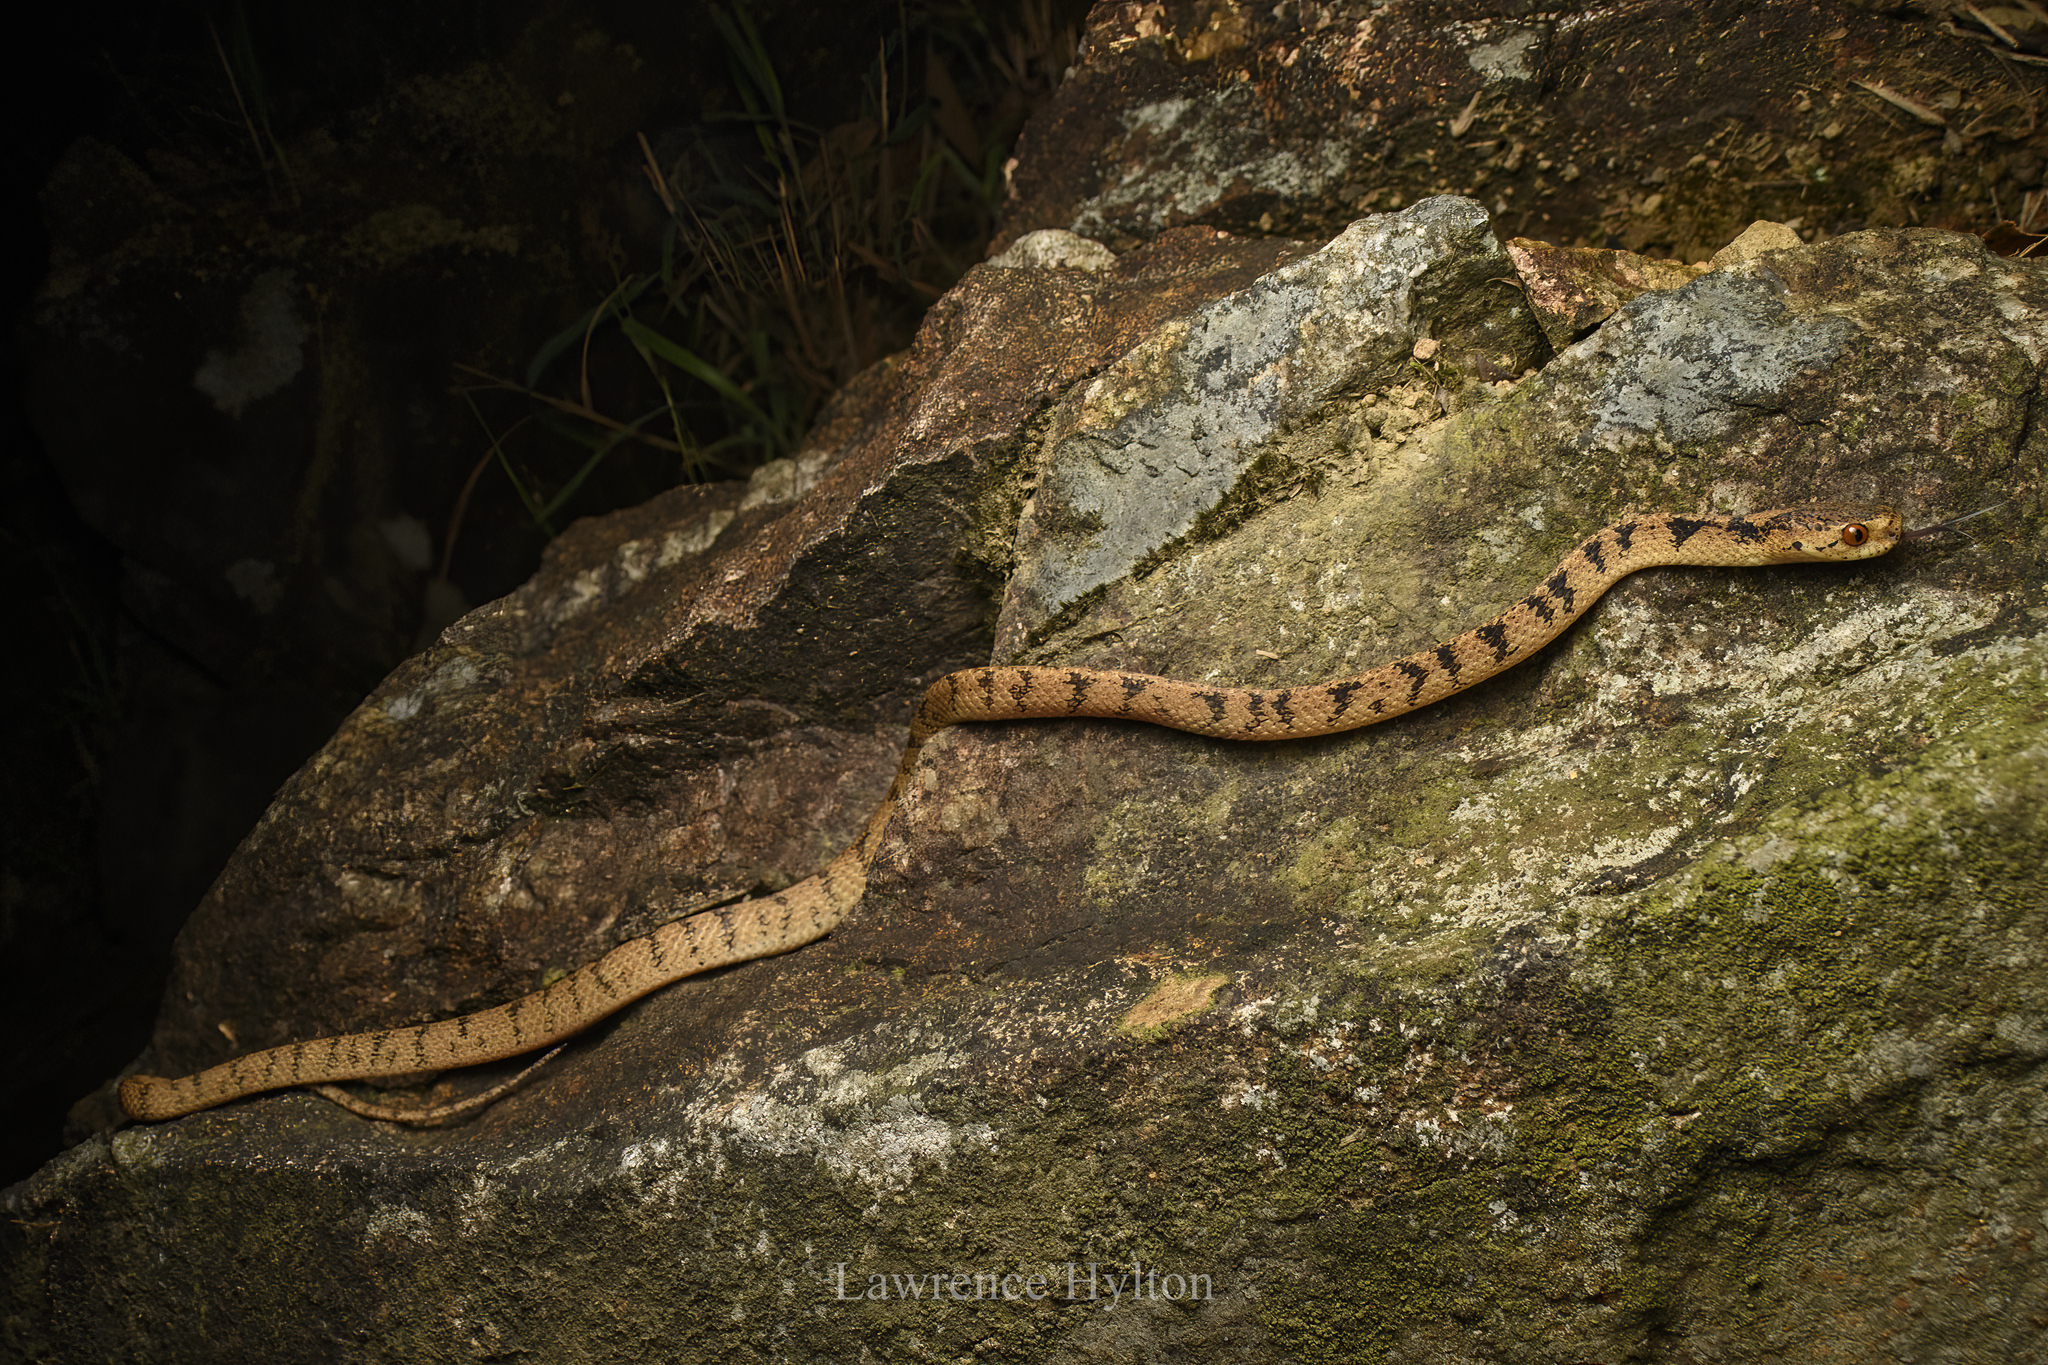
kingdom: Animalia
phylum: Chordata
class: Squamata
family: Pareidae
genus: Pareas
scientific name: Pareas chinensis
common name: Chinese slug snake
